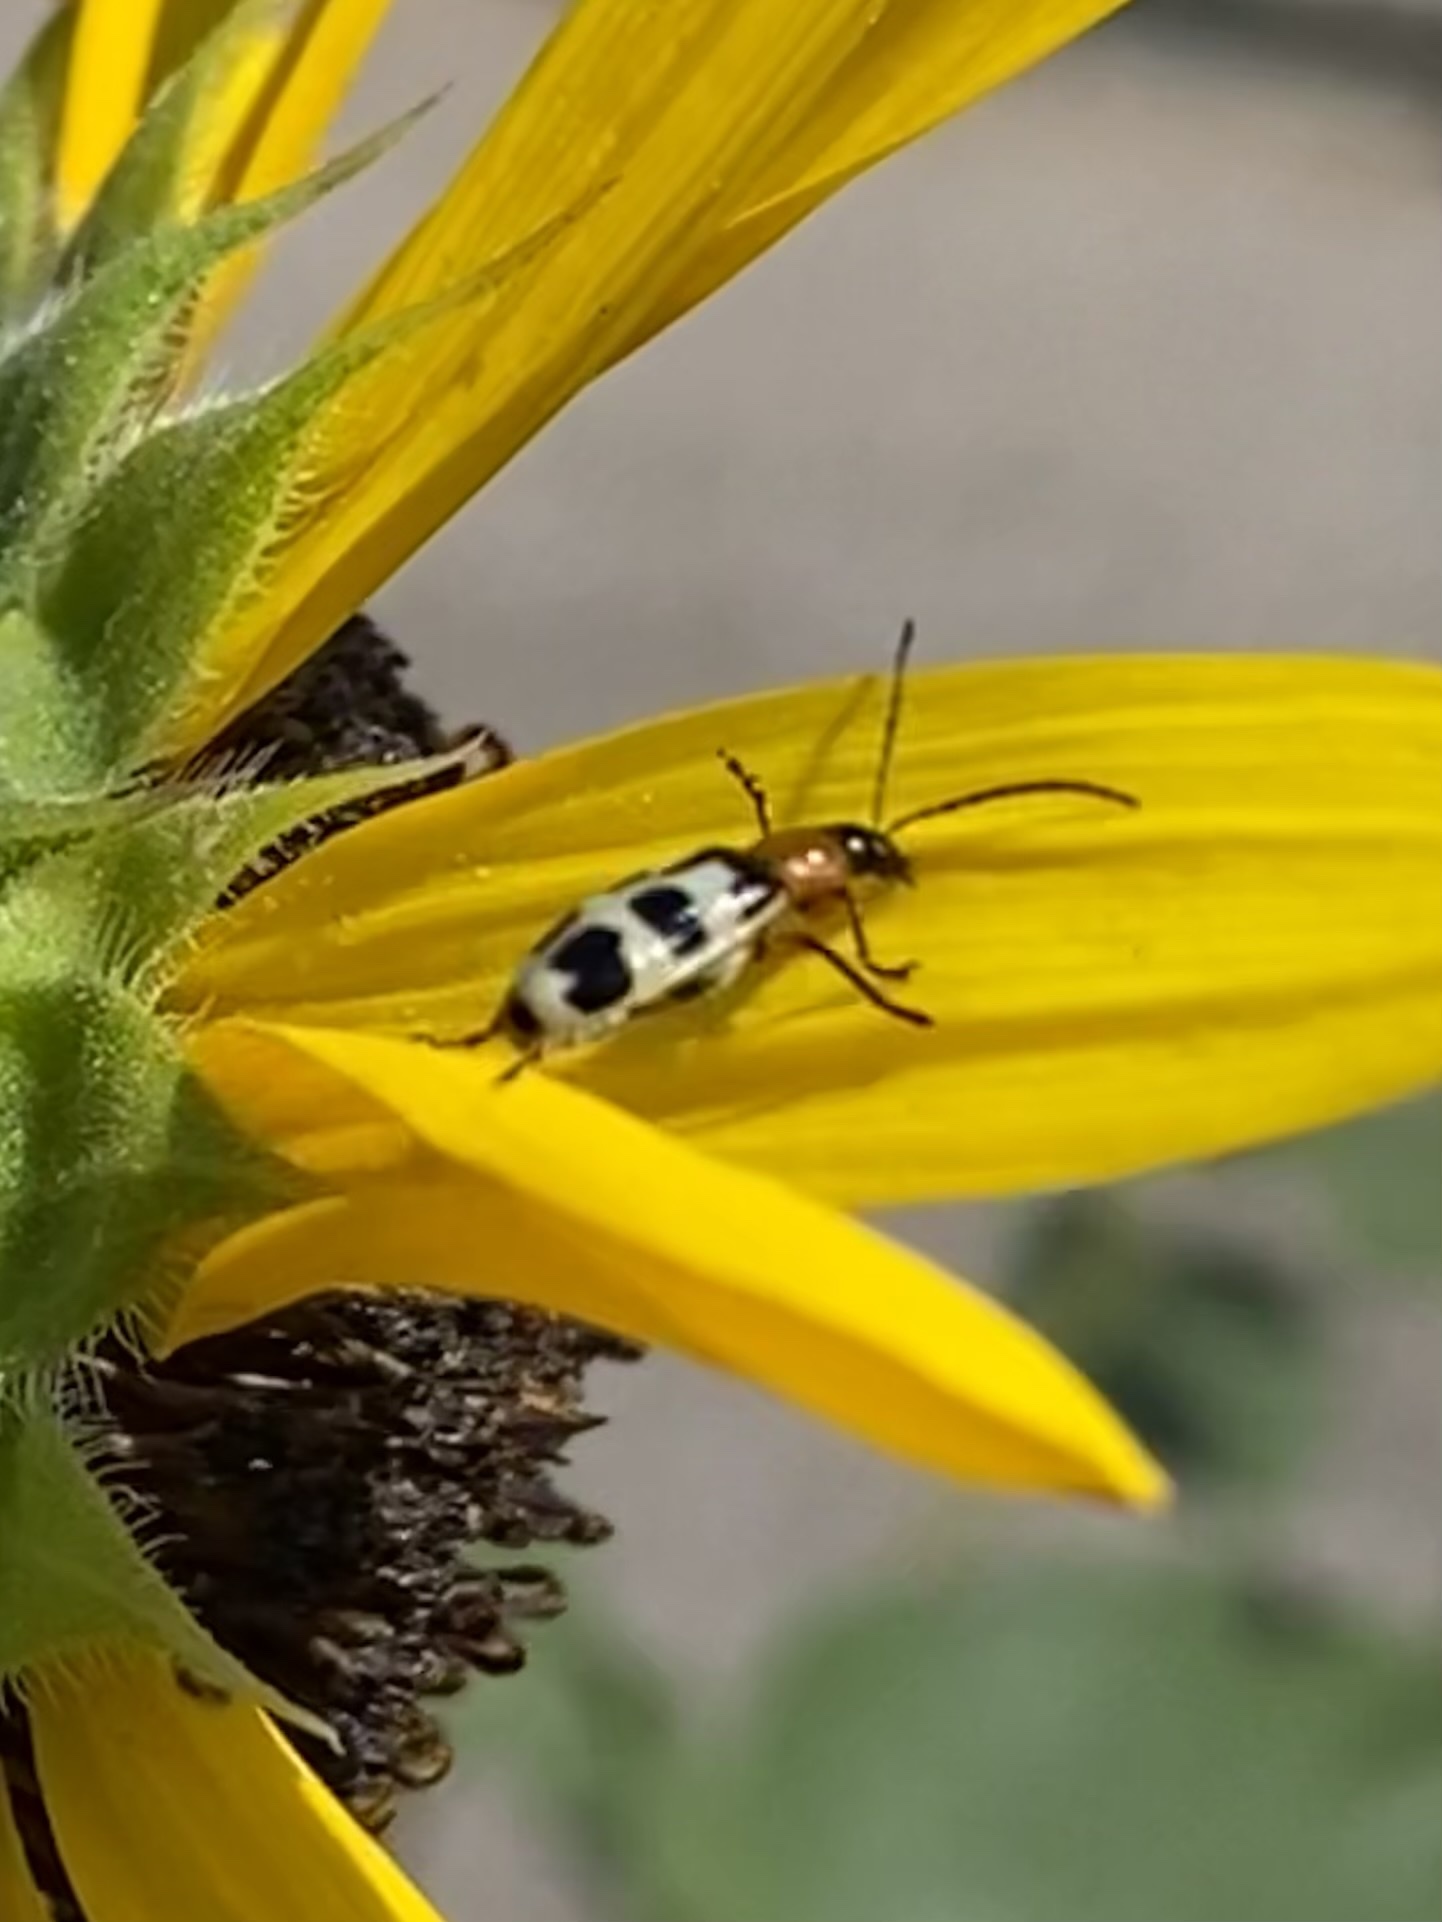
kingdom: Animalia
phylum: Arthropoda
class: Insecta
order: Coleoptera
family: Chrysomelidae
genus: Paranapiacaba
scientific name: Paranapiacaba tricincta
